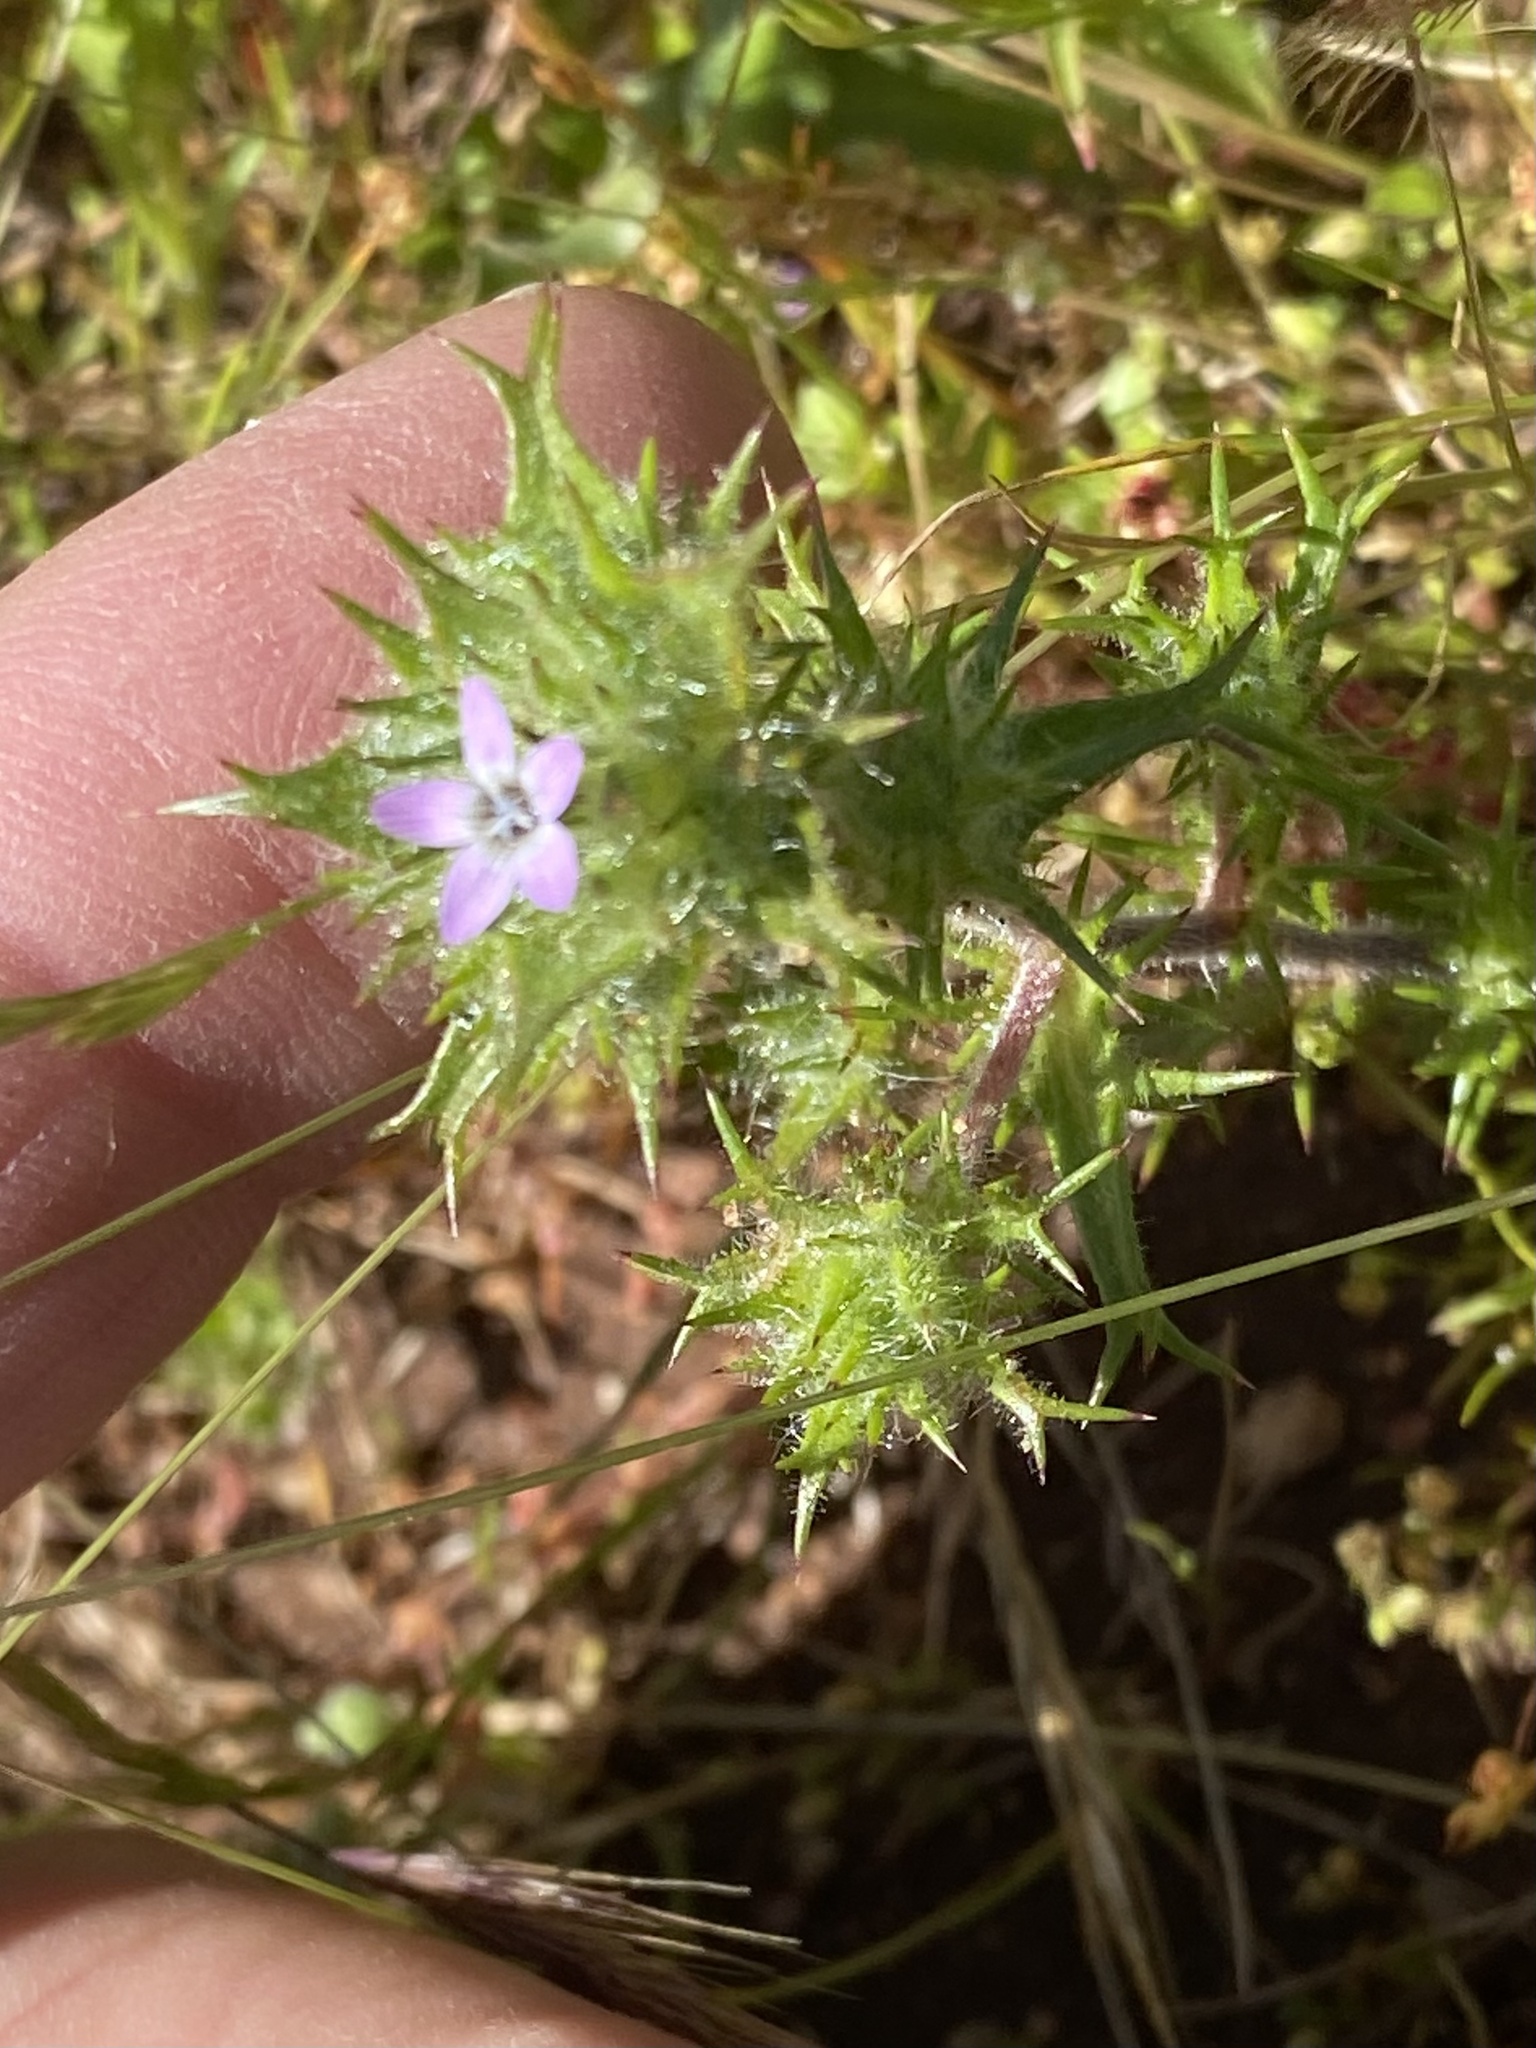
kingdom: Plantae
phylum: Tracheophyta
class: Magnoliopsida
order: Ericales
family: Polemoniaceae
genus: Navarretia
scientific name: Navarretia hamata
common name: Hooked navarretia
